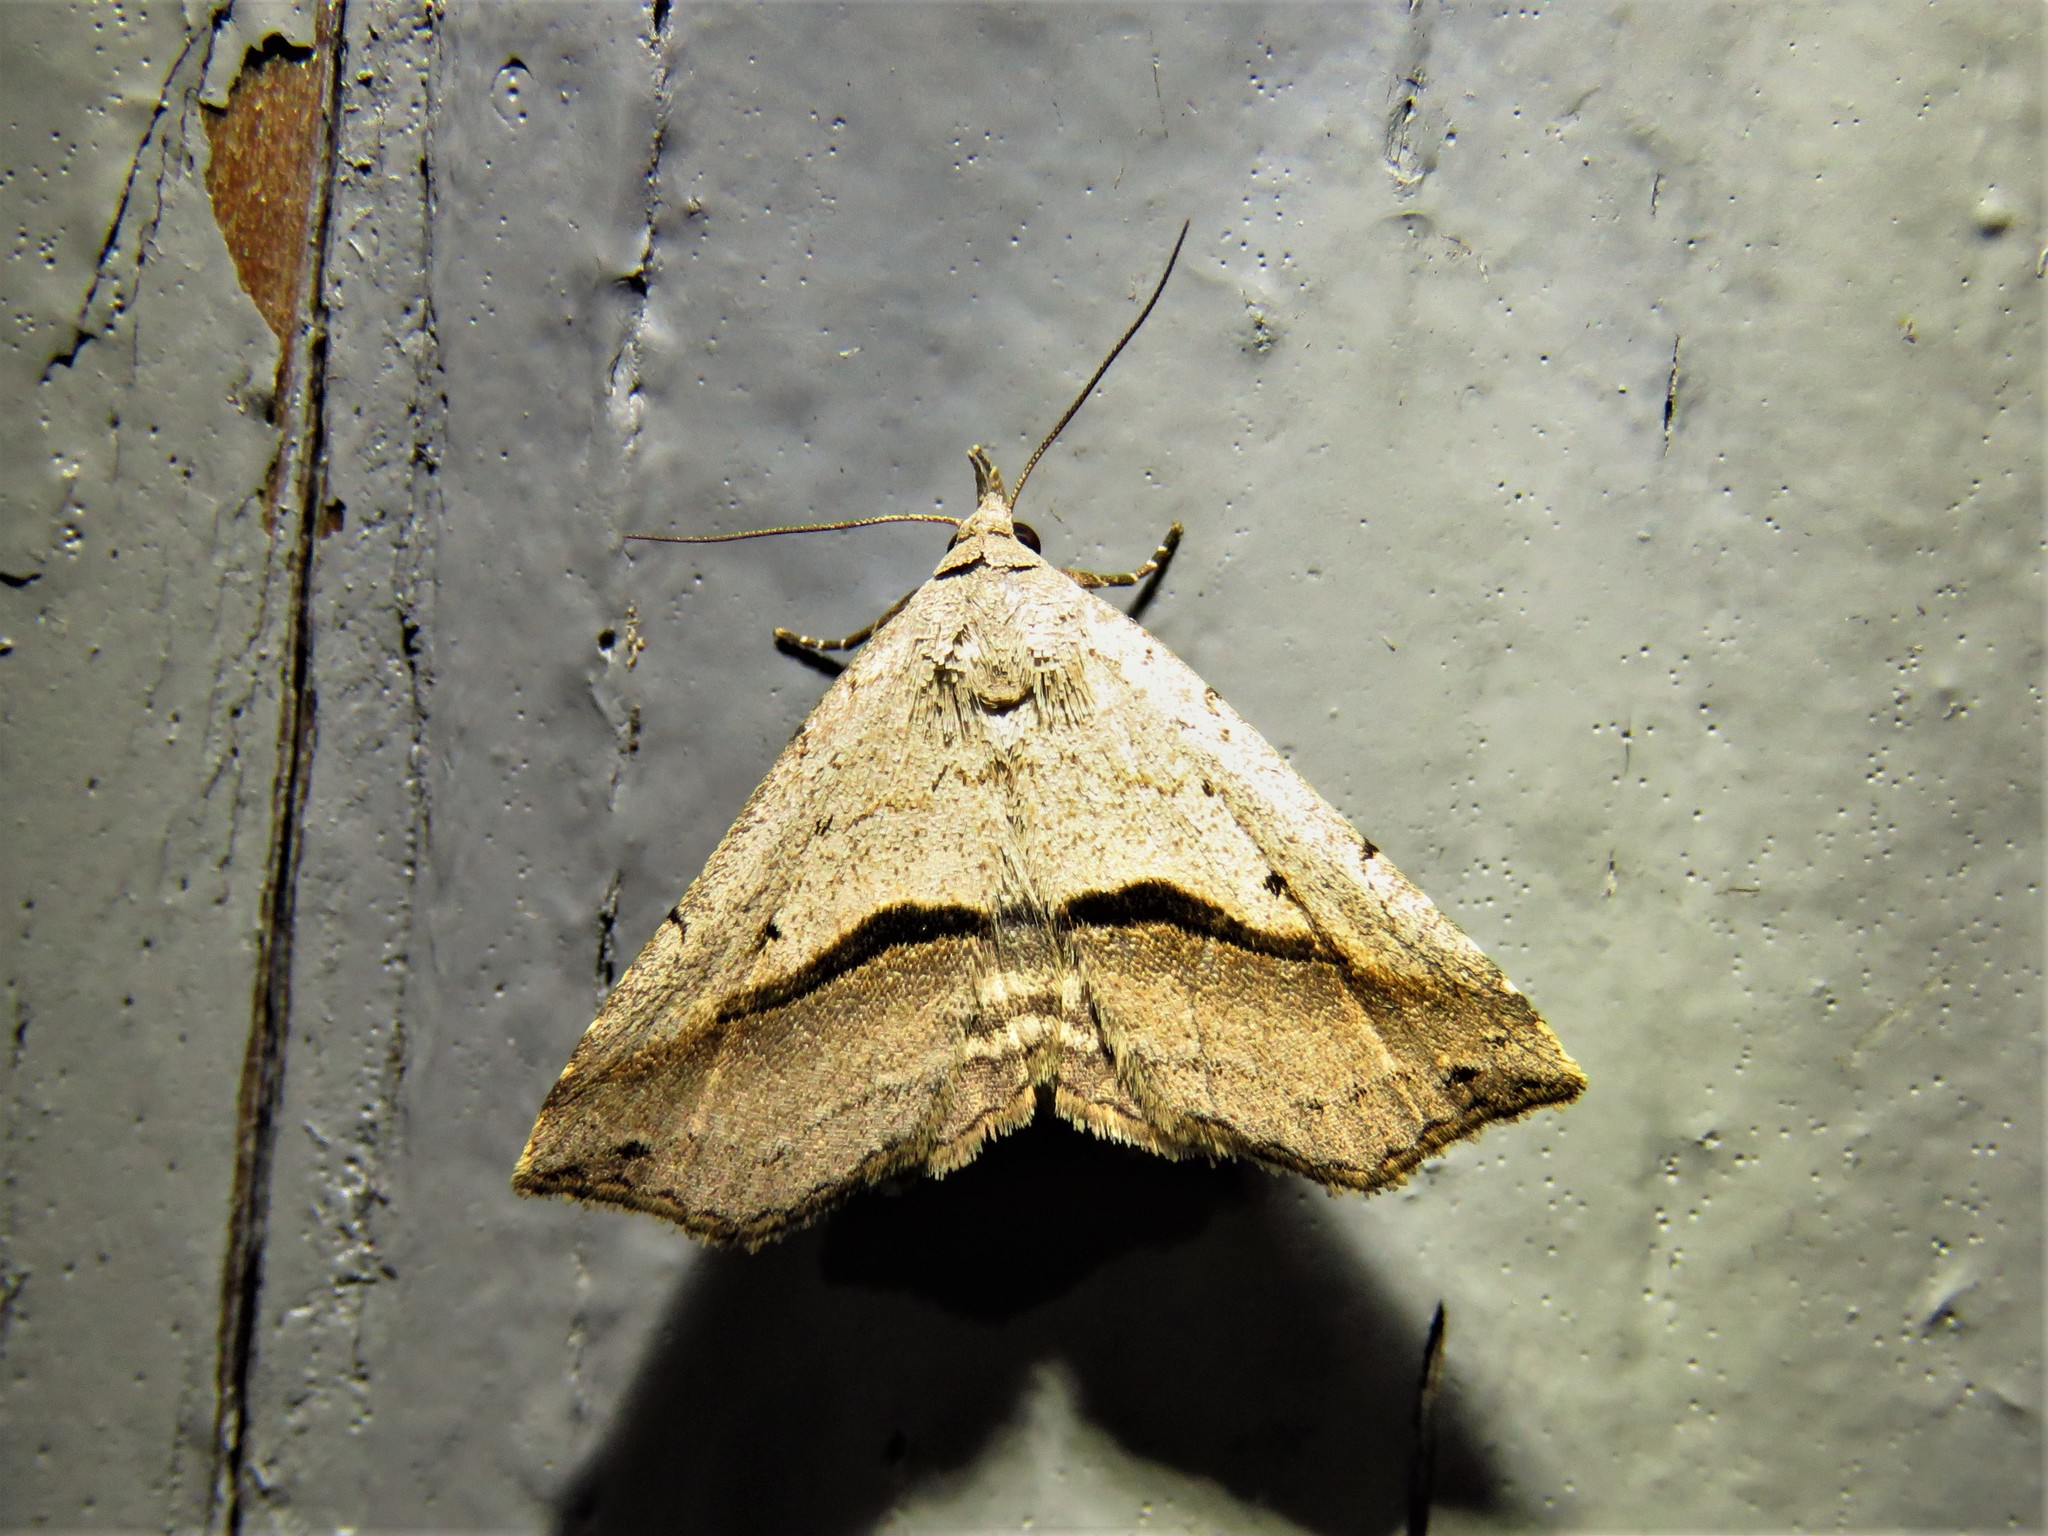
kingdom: Animalia
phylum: Arthropoda
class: Insecta
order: Lepidoptera
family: Erebidae
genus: Spargaloma
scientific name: Spargaloma perditalis
